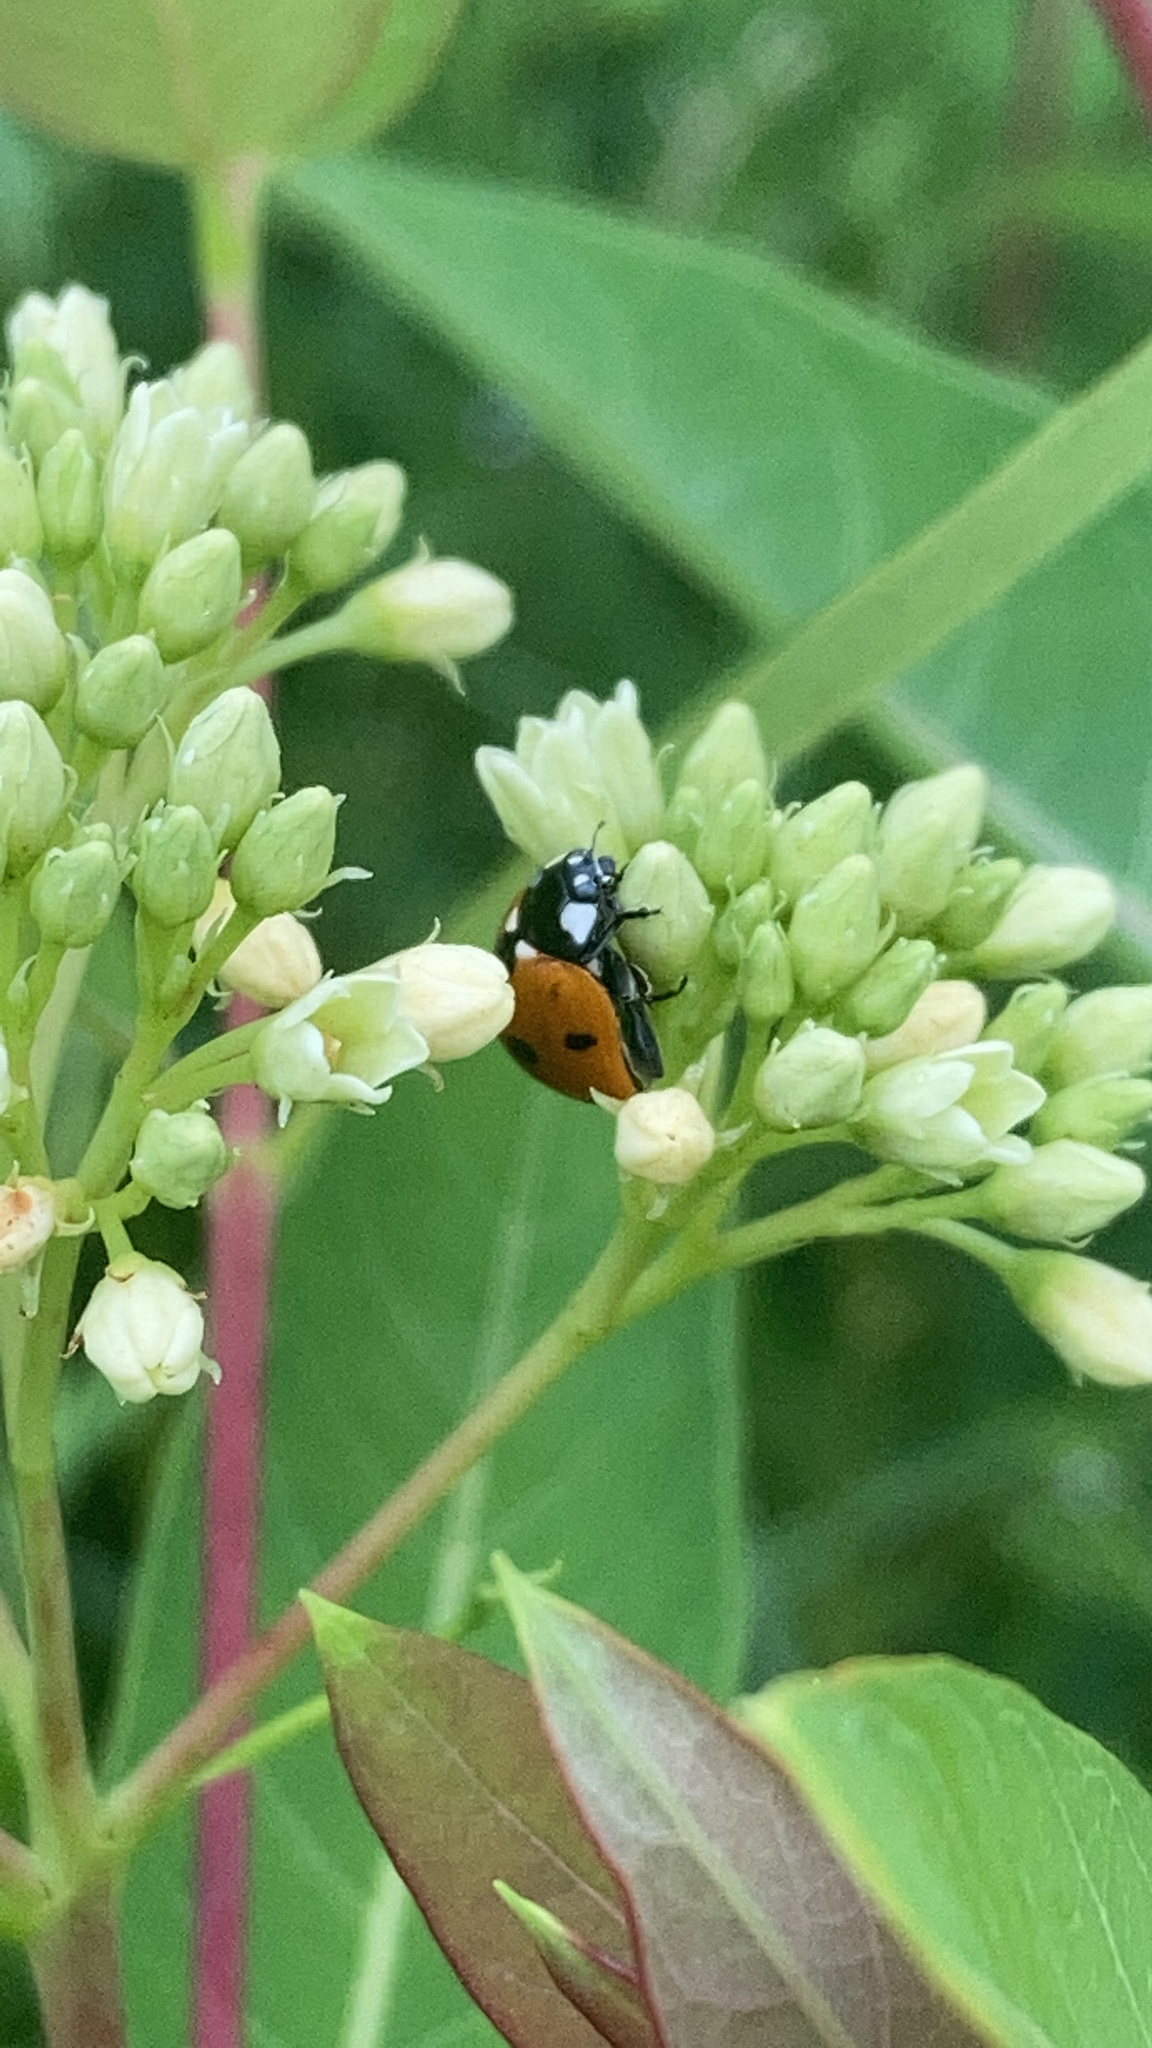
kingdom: Animalia
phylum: Arthropoda
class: Insecta
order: Coleoptera
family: Coccinellidae
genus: Coccinella
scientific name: Coccinella septempunctata
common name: Sevenspotted lady beetle
